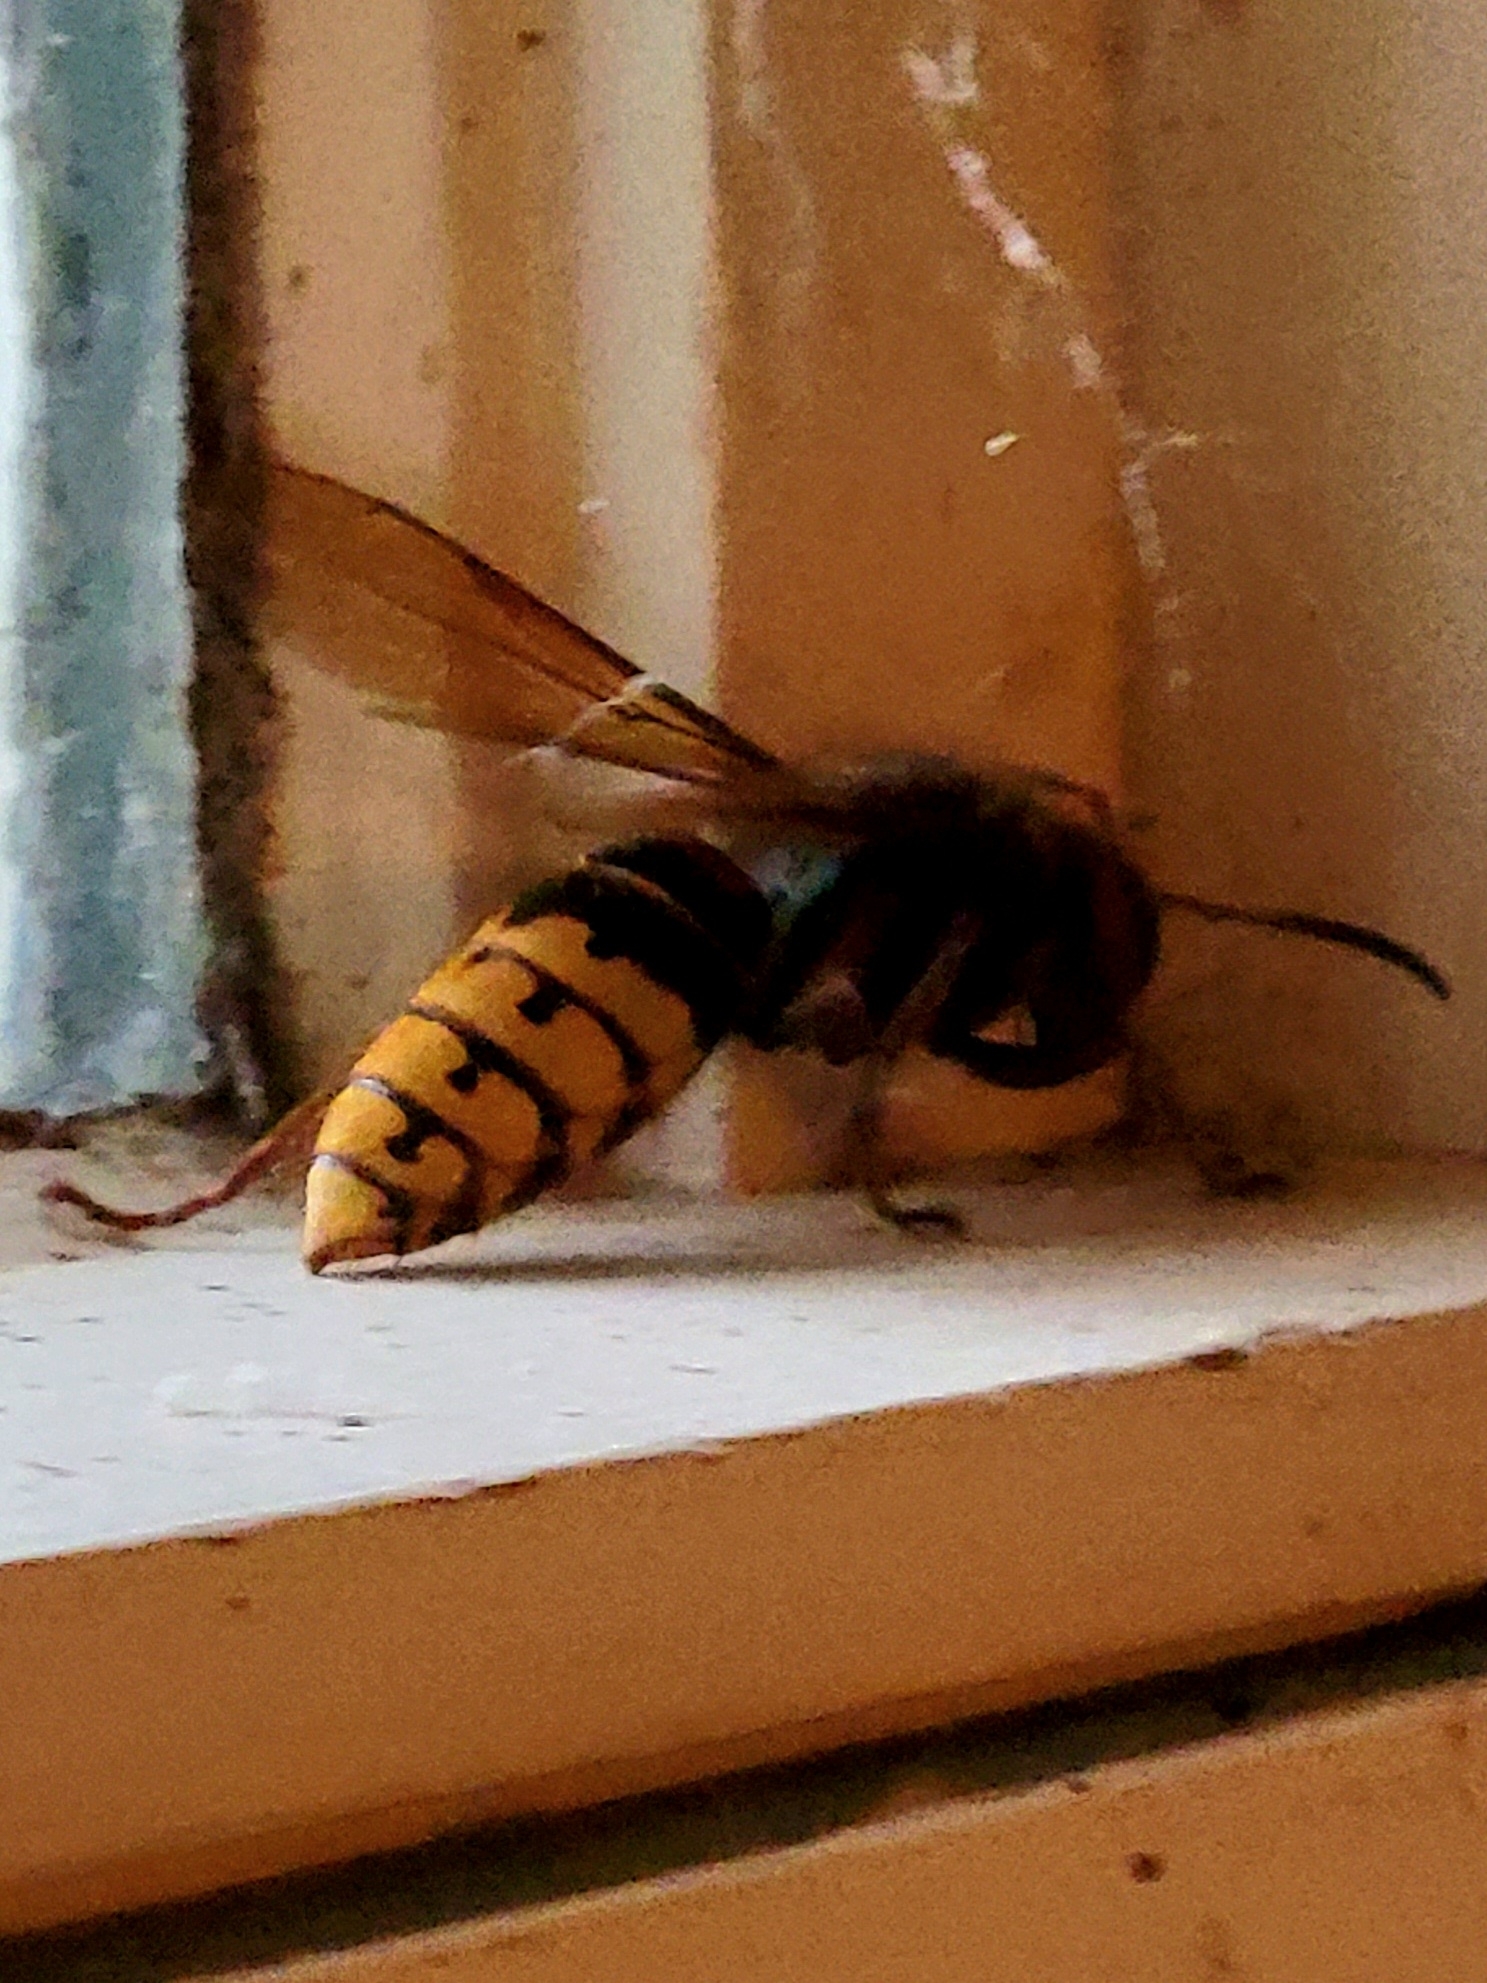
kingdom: Animalia
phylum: Arthropoda
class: Insecta
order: Hymenoptera
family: Vespidae
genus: Vespa
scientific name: Vespa crabro
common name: Hornet
